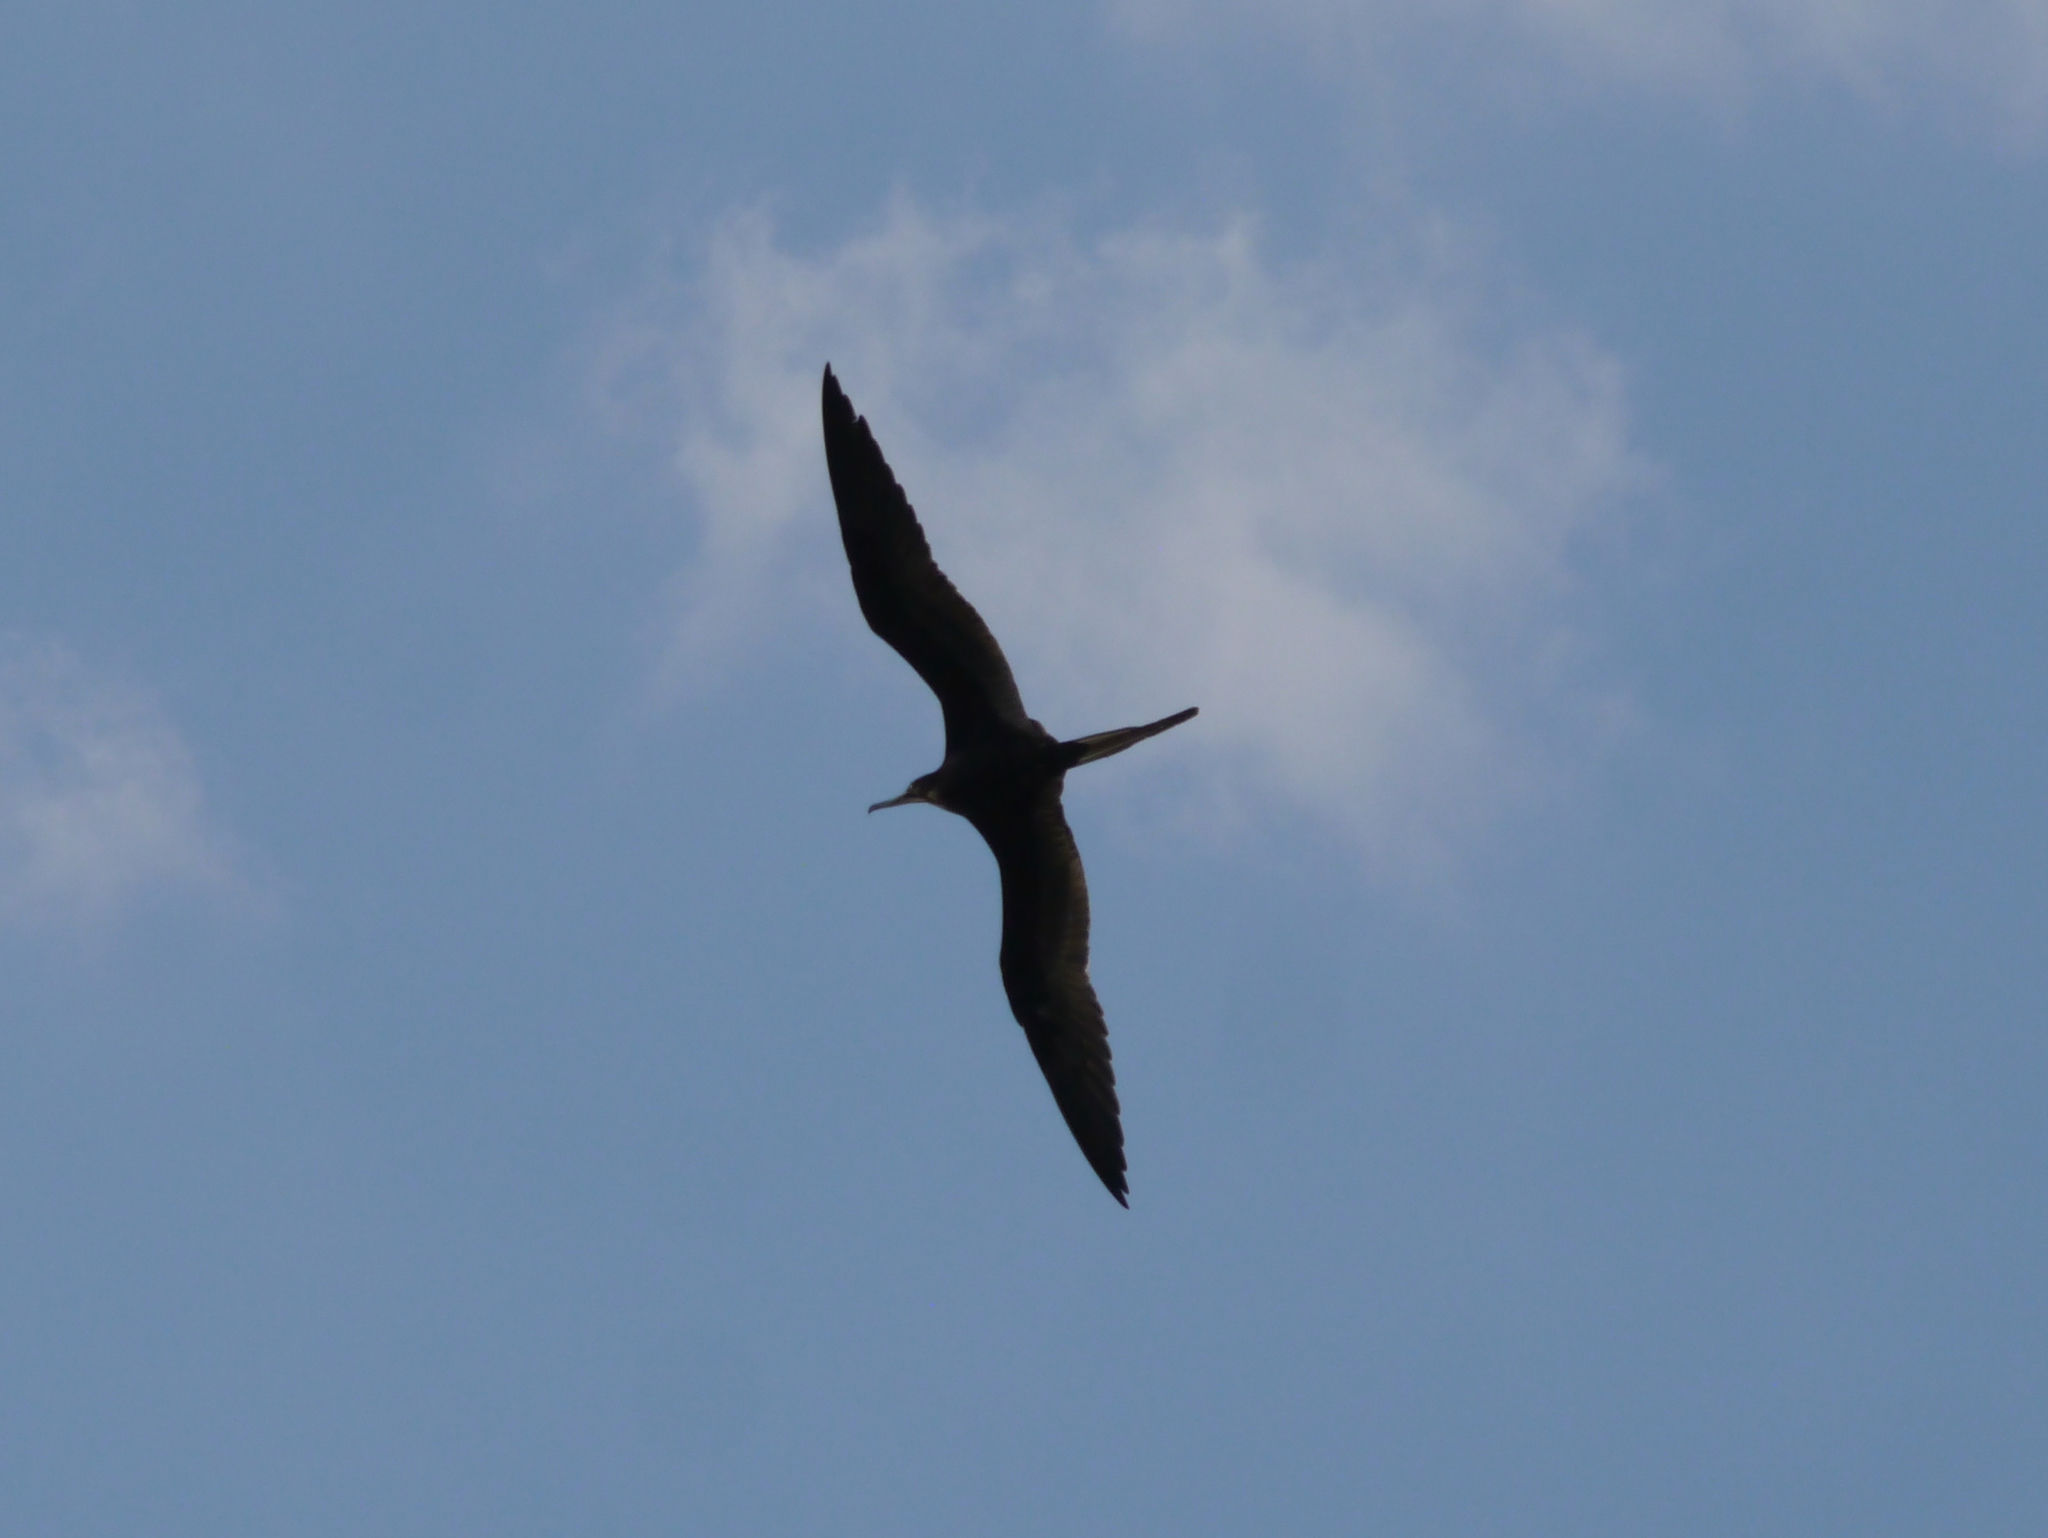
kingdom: Animalia
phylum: Chordata
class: Aves
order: Suliformes
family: Fregatidae
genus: Fregata
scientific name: Fregata magnificens
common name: Magnificent frigatebird
